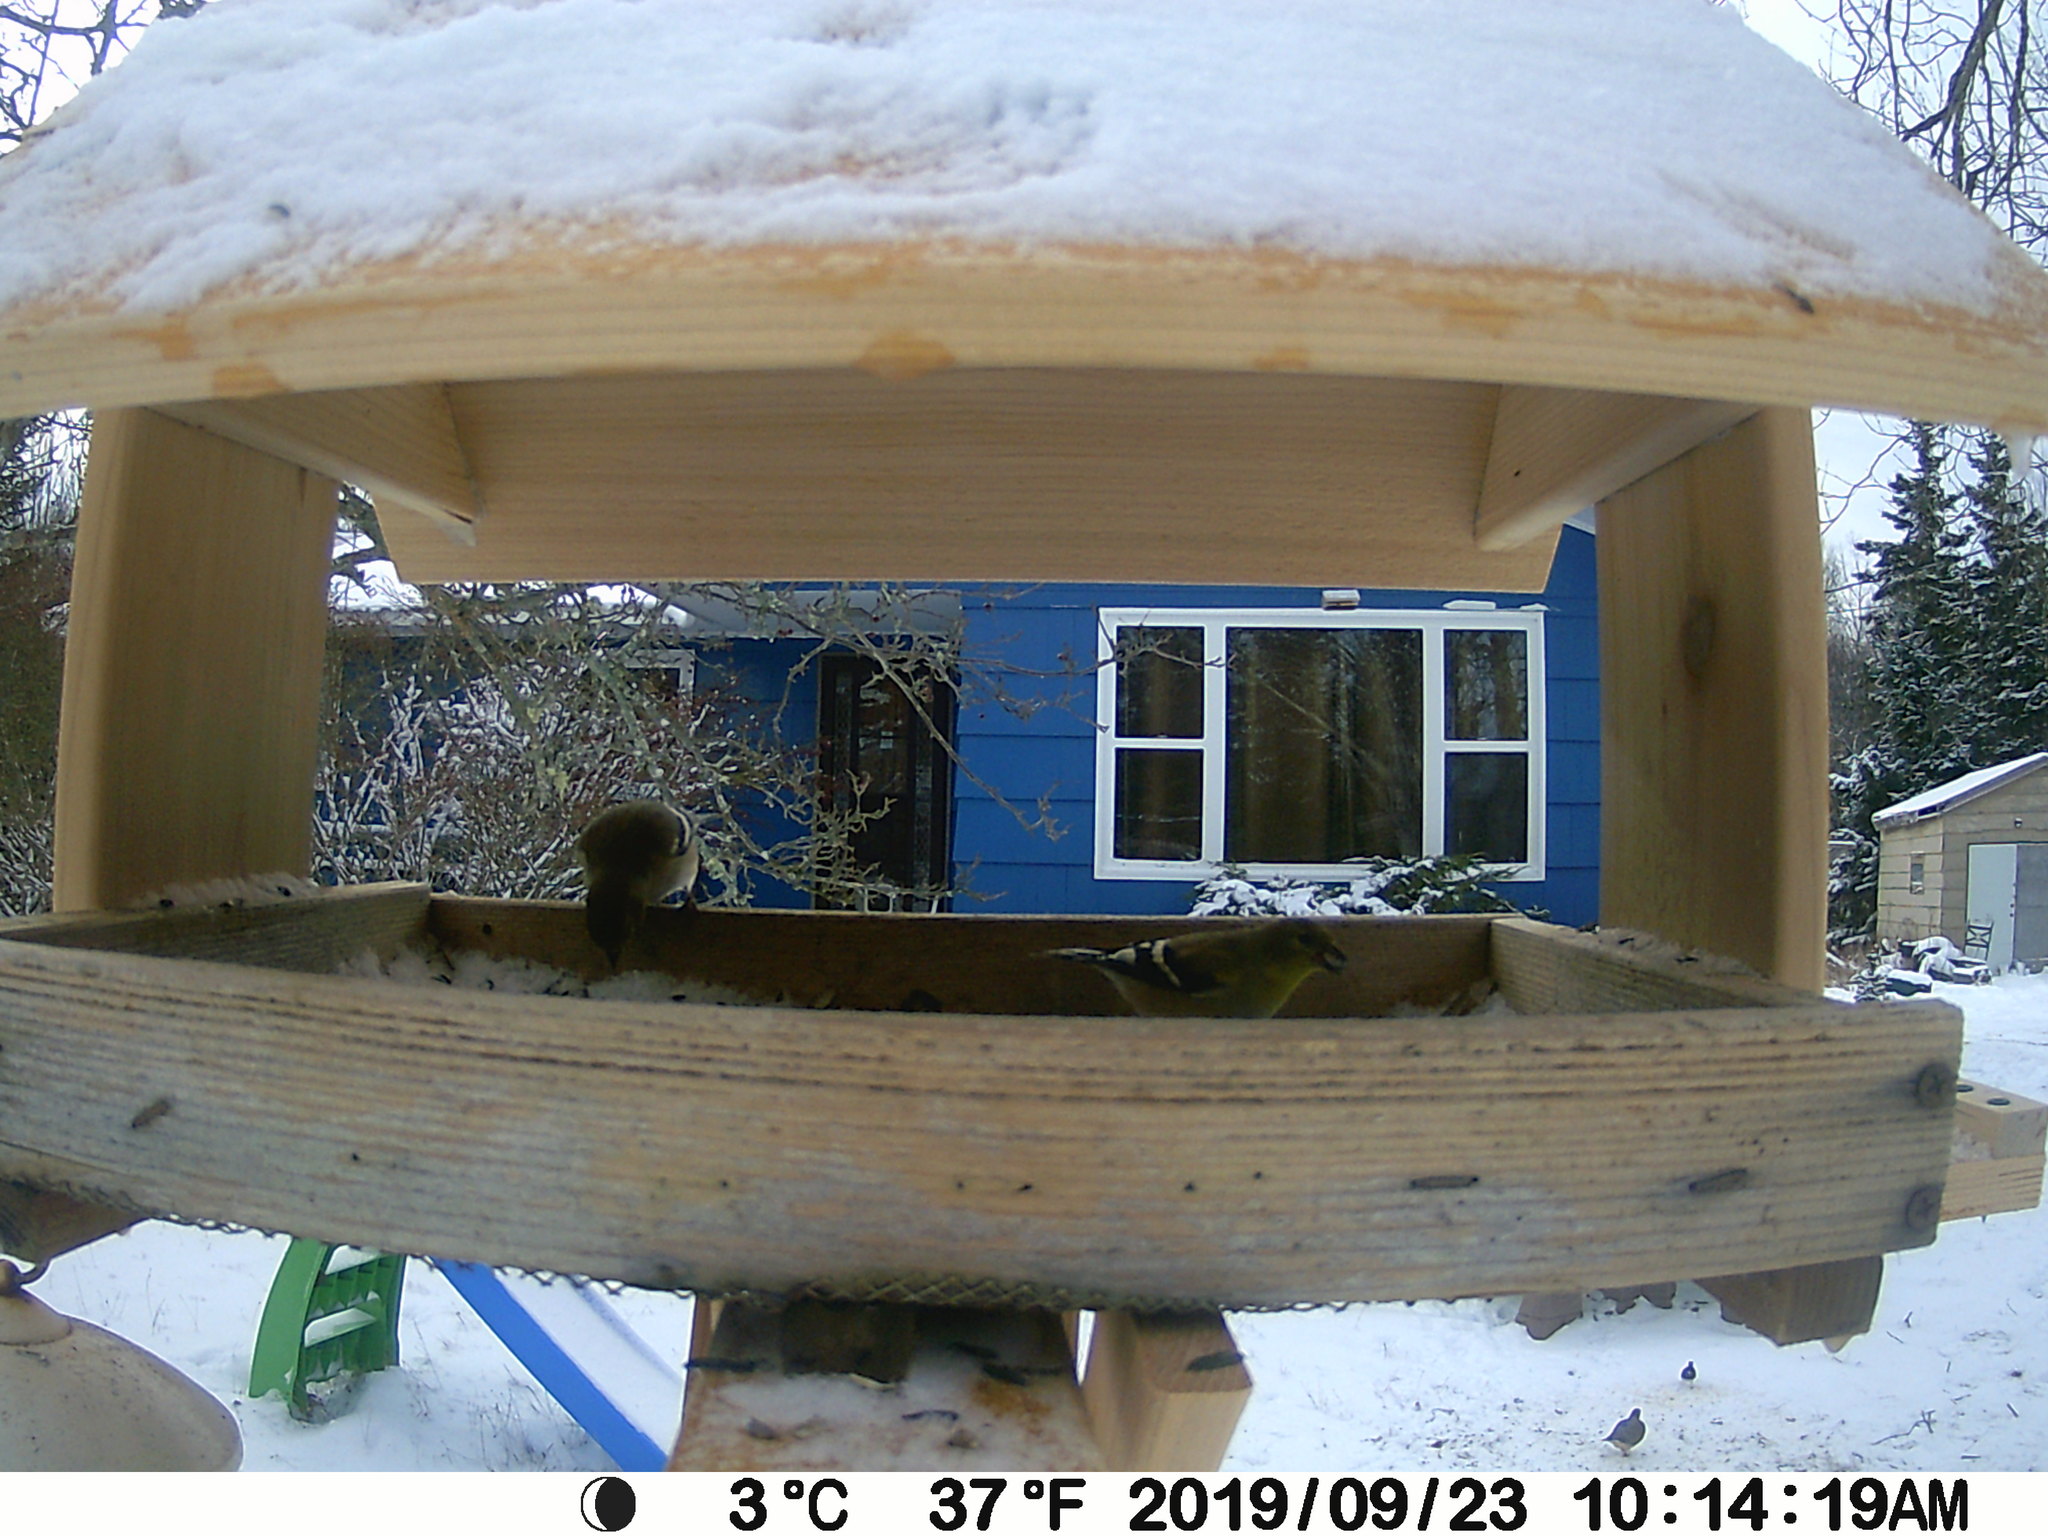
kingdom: Animalia
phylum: Chordata
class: Aves
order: Columbiformes
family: Columbidae
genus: Zenaida
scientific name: Zenaida macroura
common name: Mourning dove
